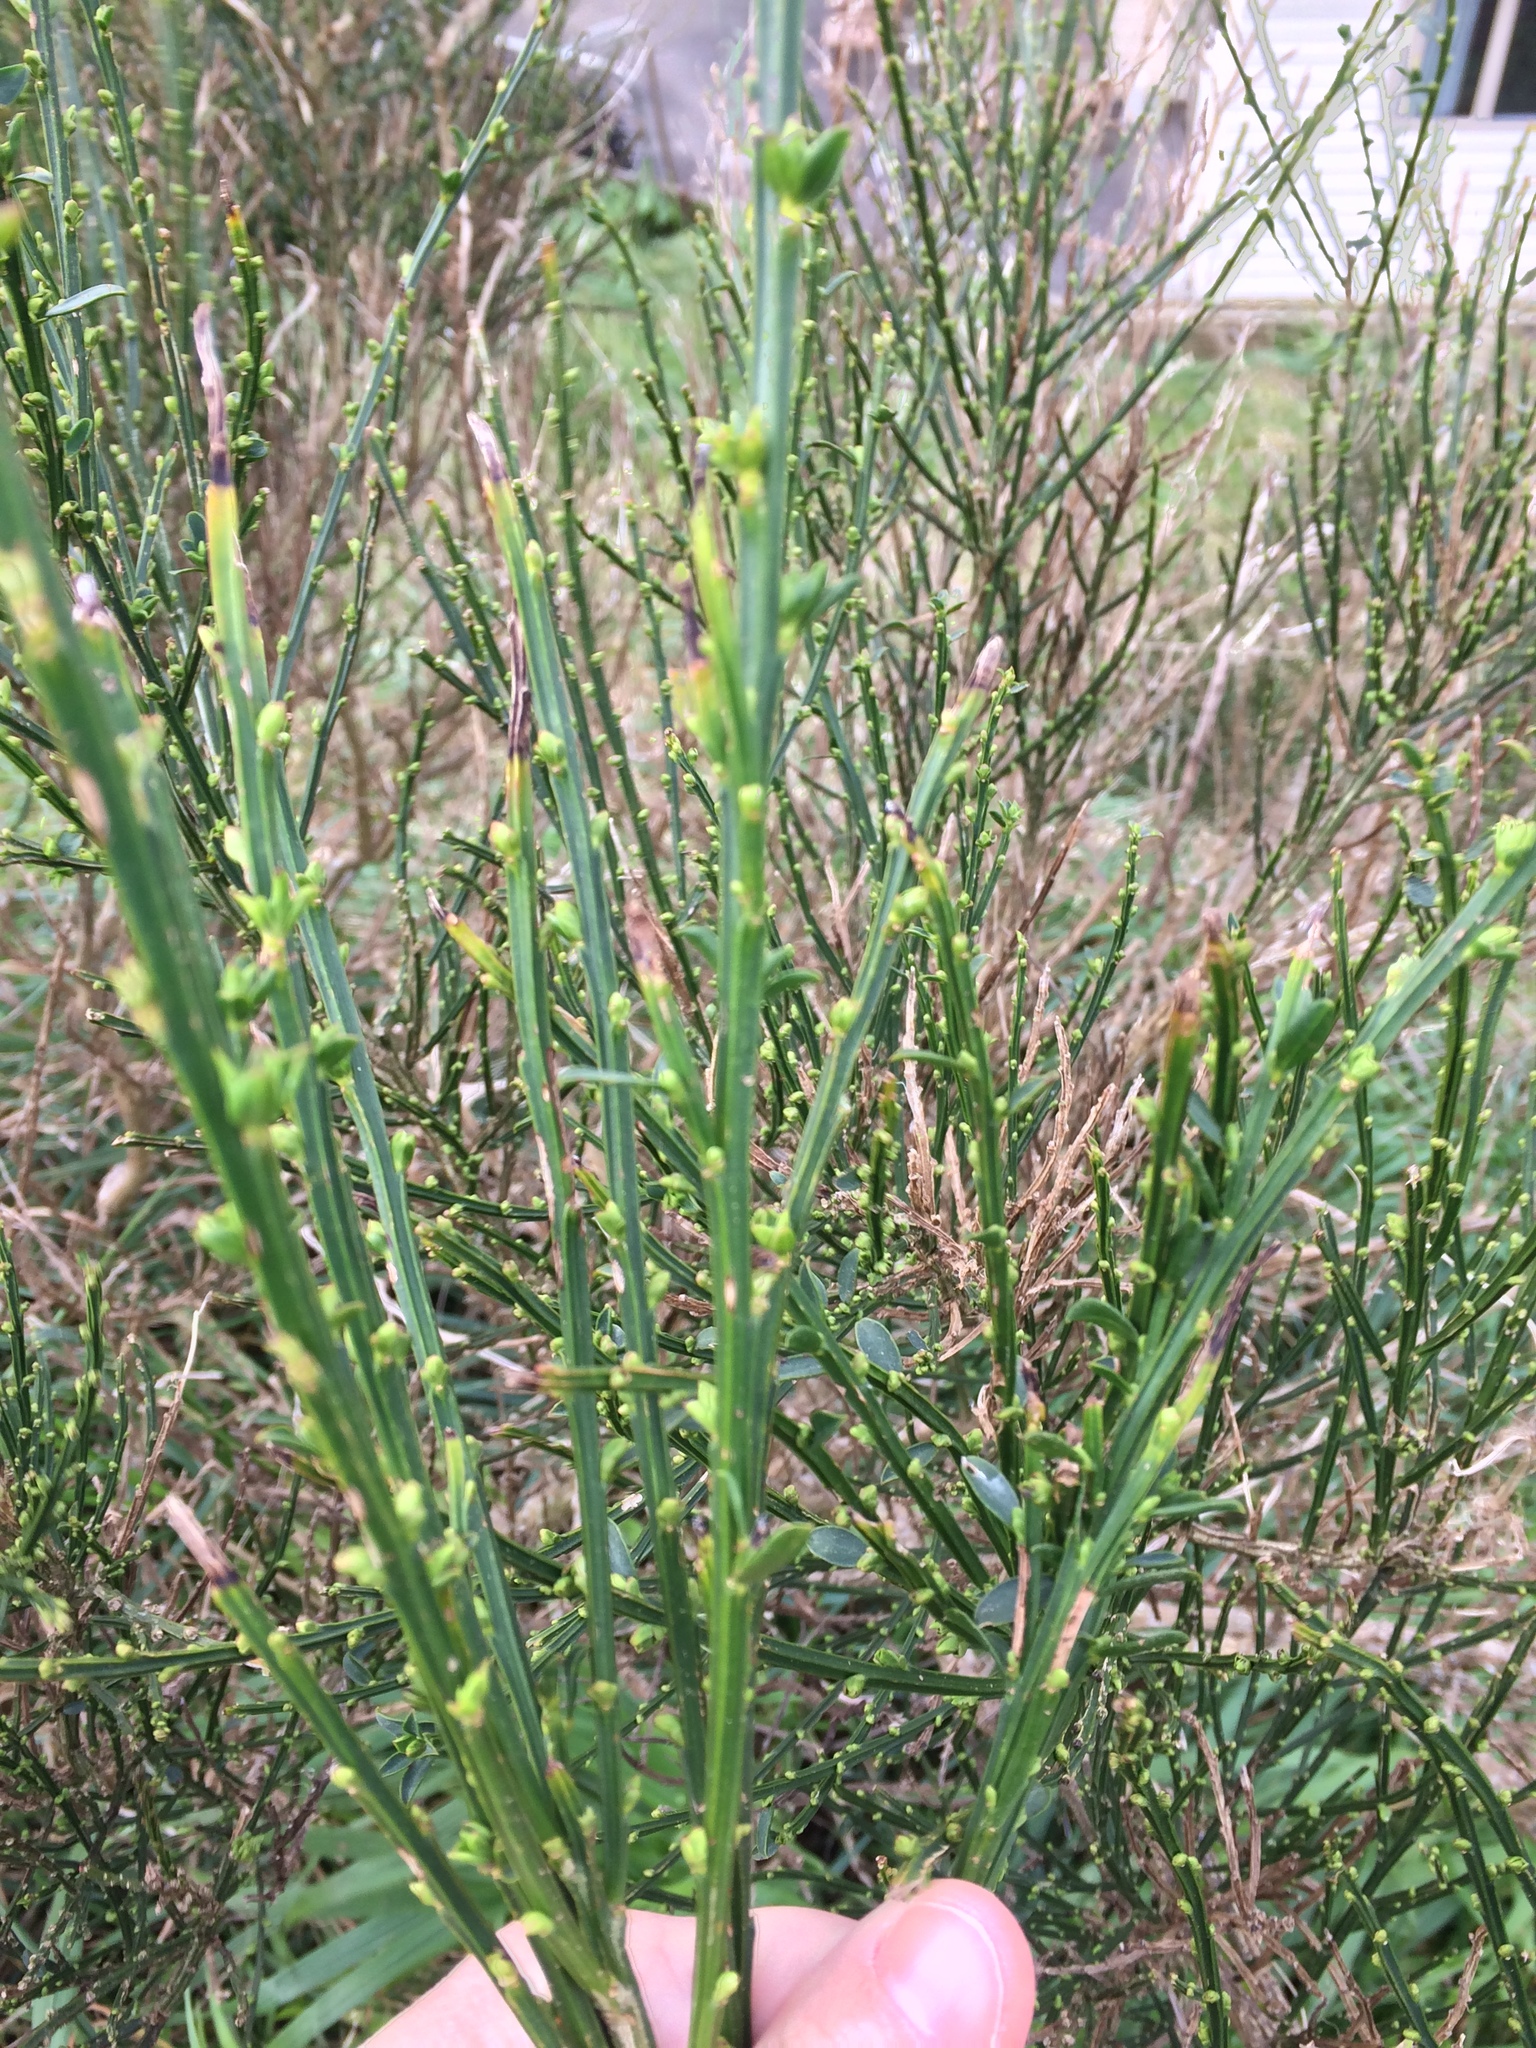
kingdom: Plantae
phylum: Tracheophyta
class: Magnoliopsida
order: Fabales
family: Fabaceae
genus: Cytisus
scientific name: Cytisus scoparius
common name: Scotch broom
